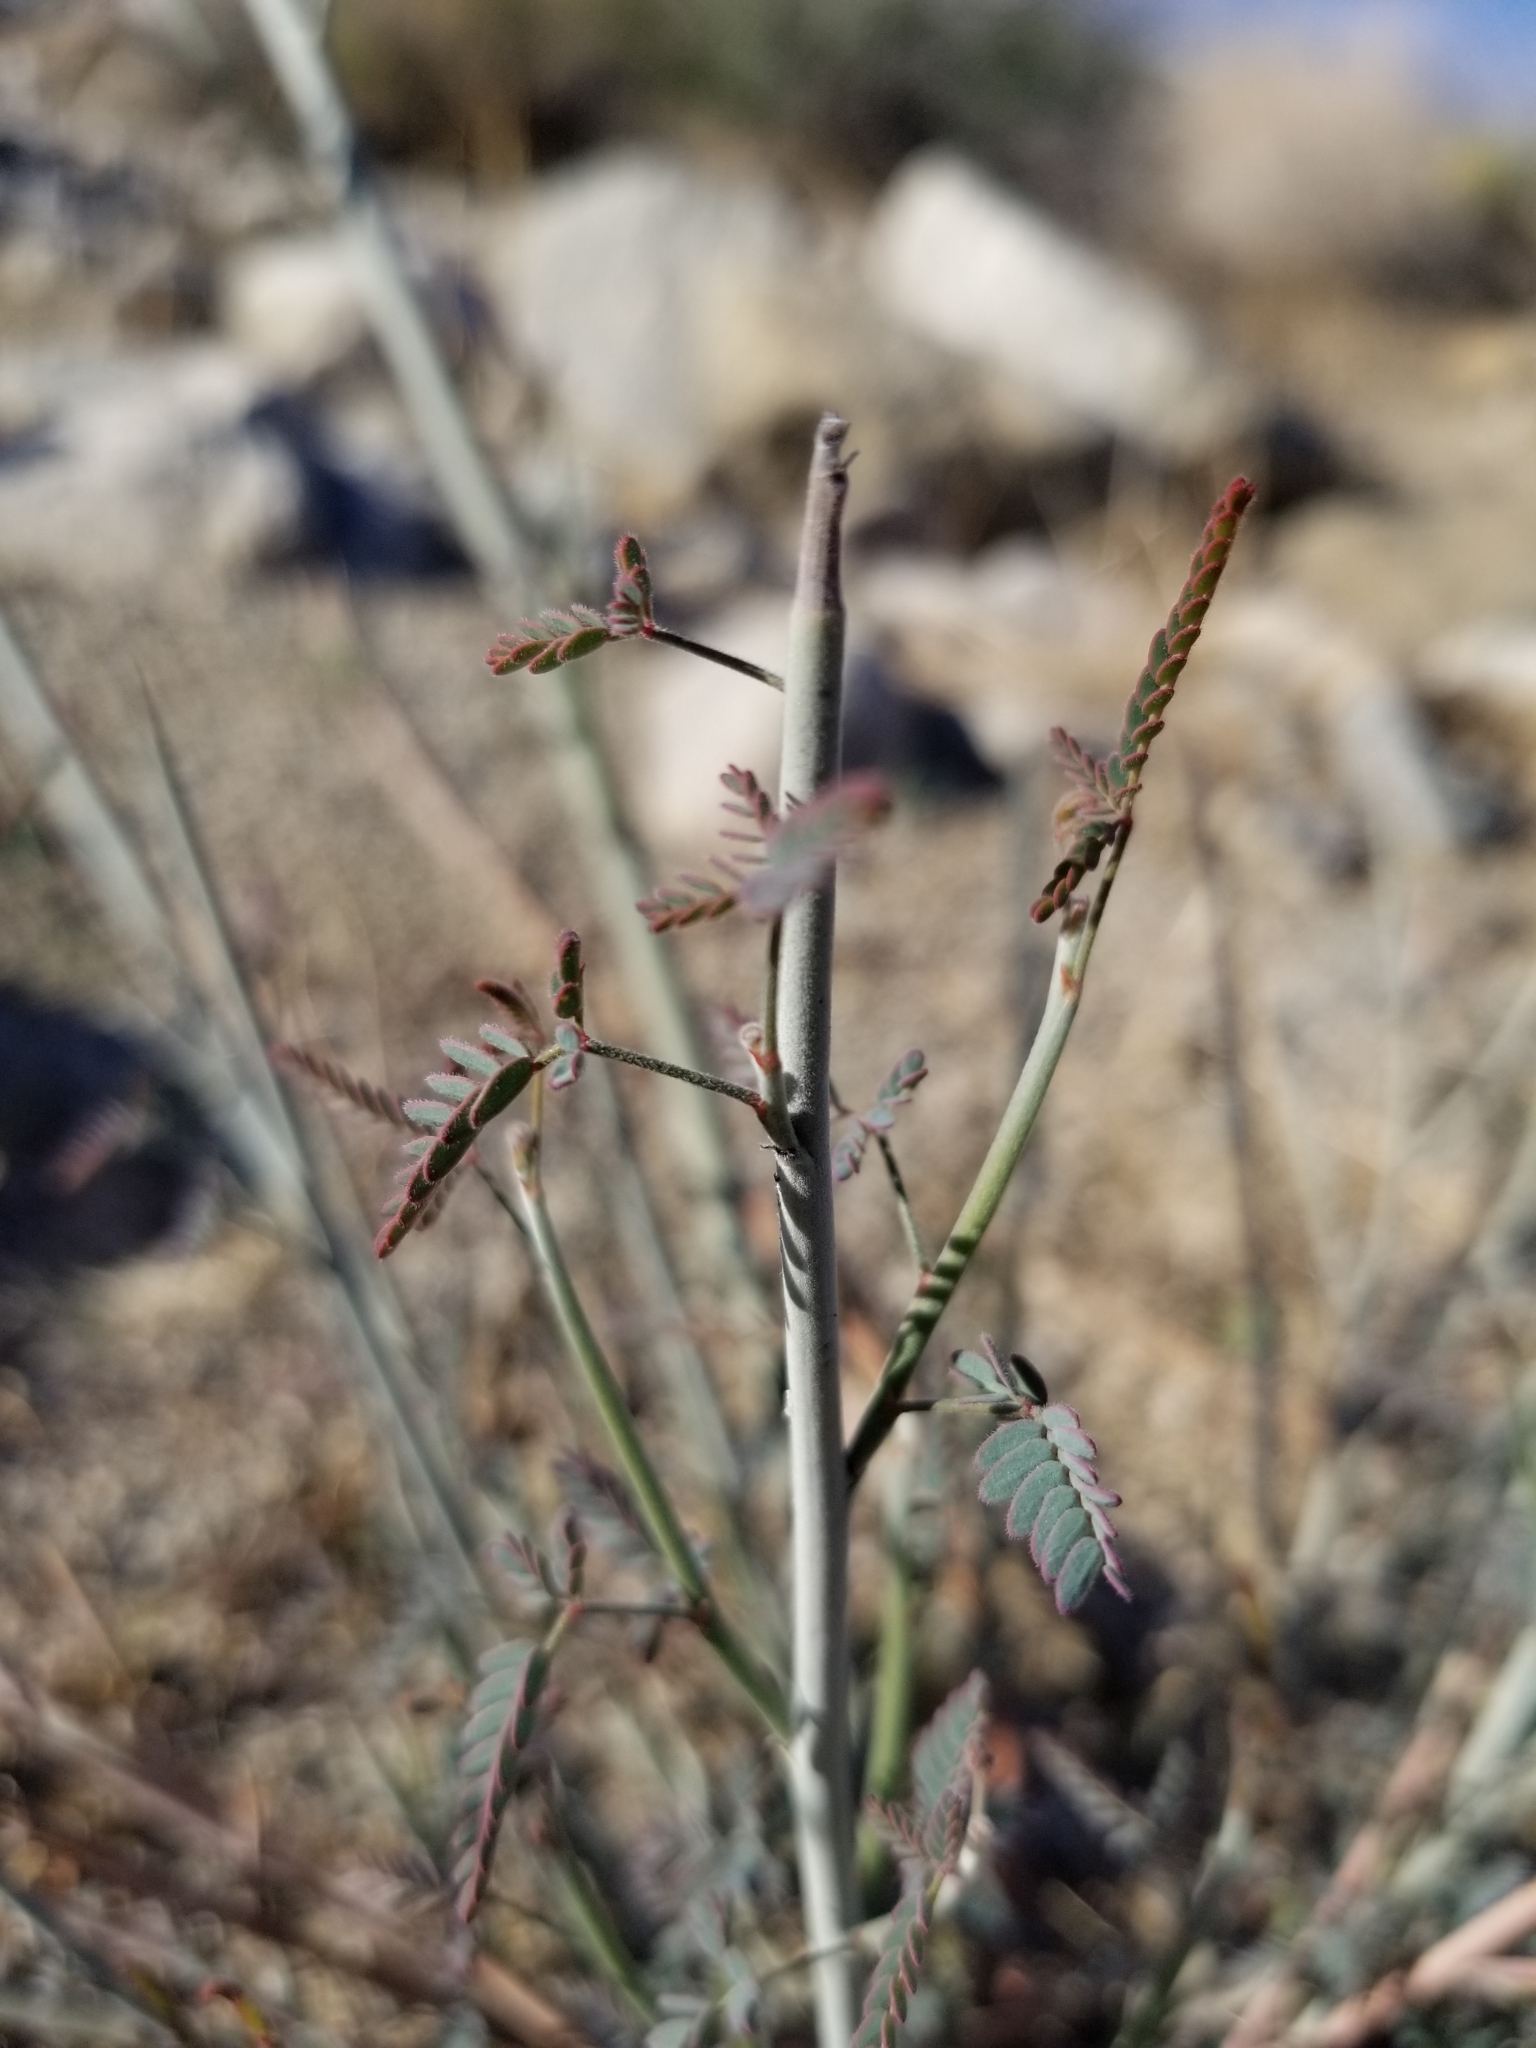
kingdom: Plantae
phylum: Tracheophyta
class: Magnoliopsida
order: Fabales
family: Fabaceae
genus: Hoffmannseggia
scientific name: Hoffmannseggia microphylla
